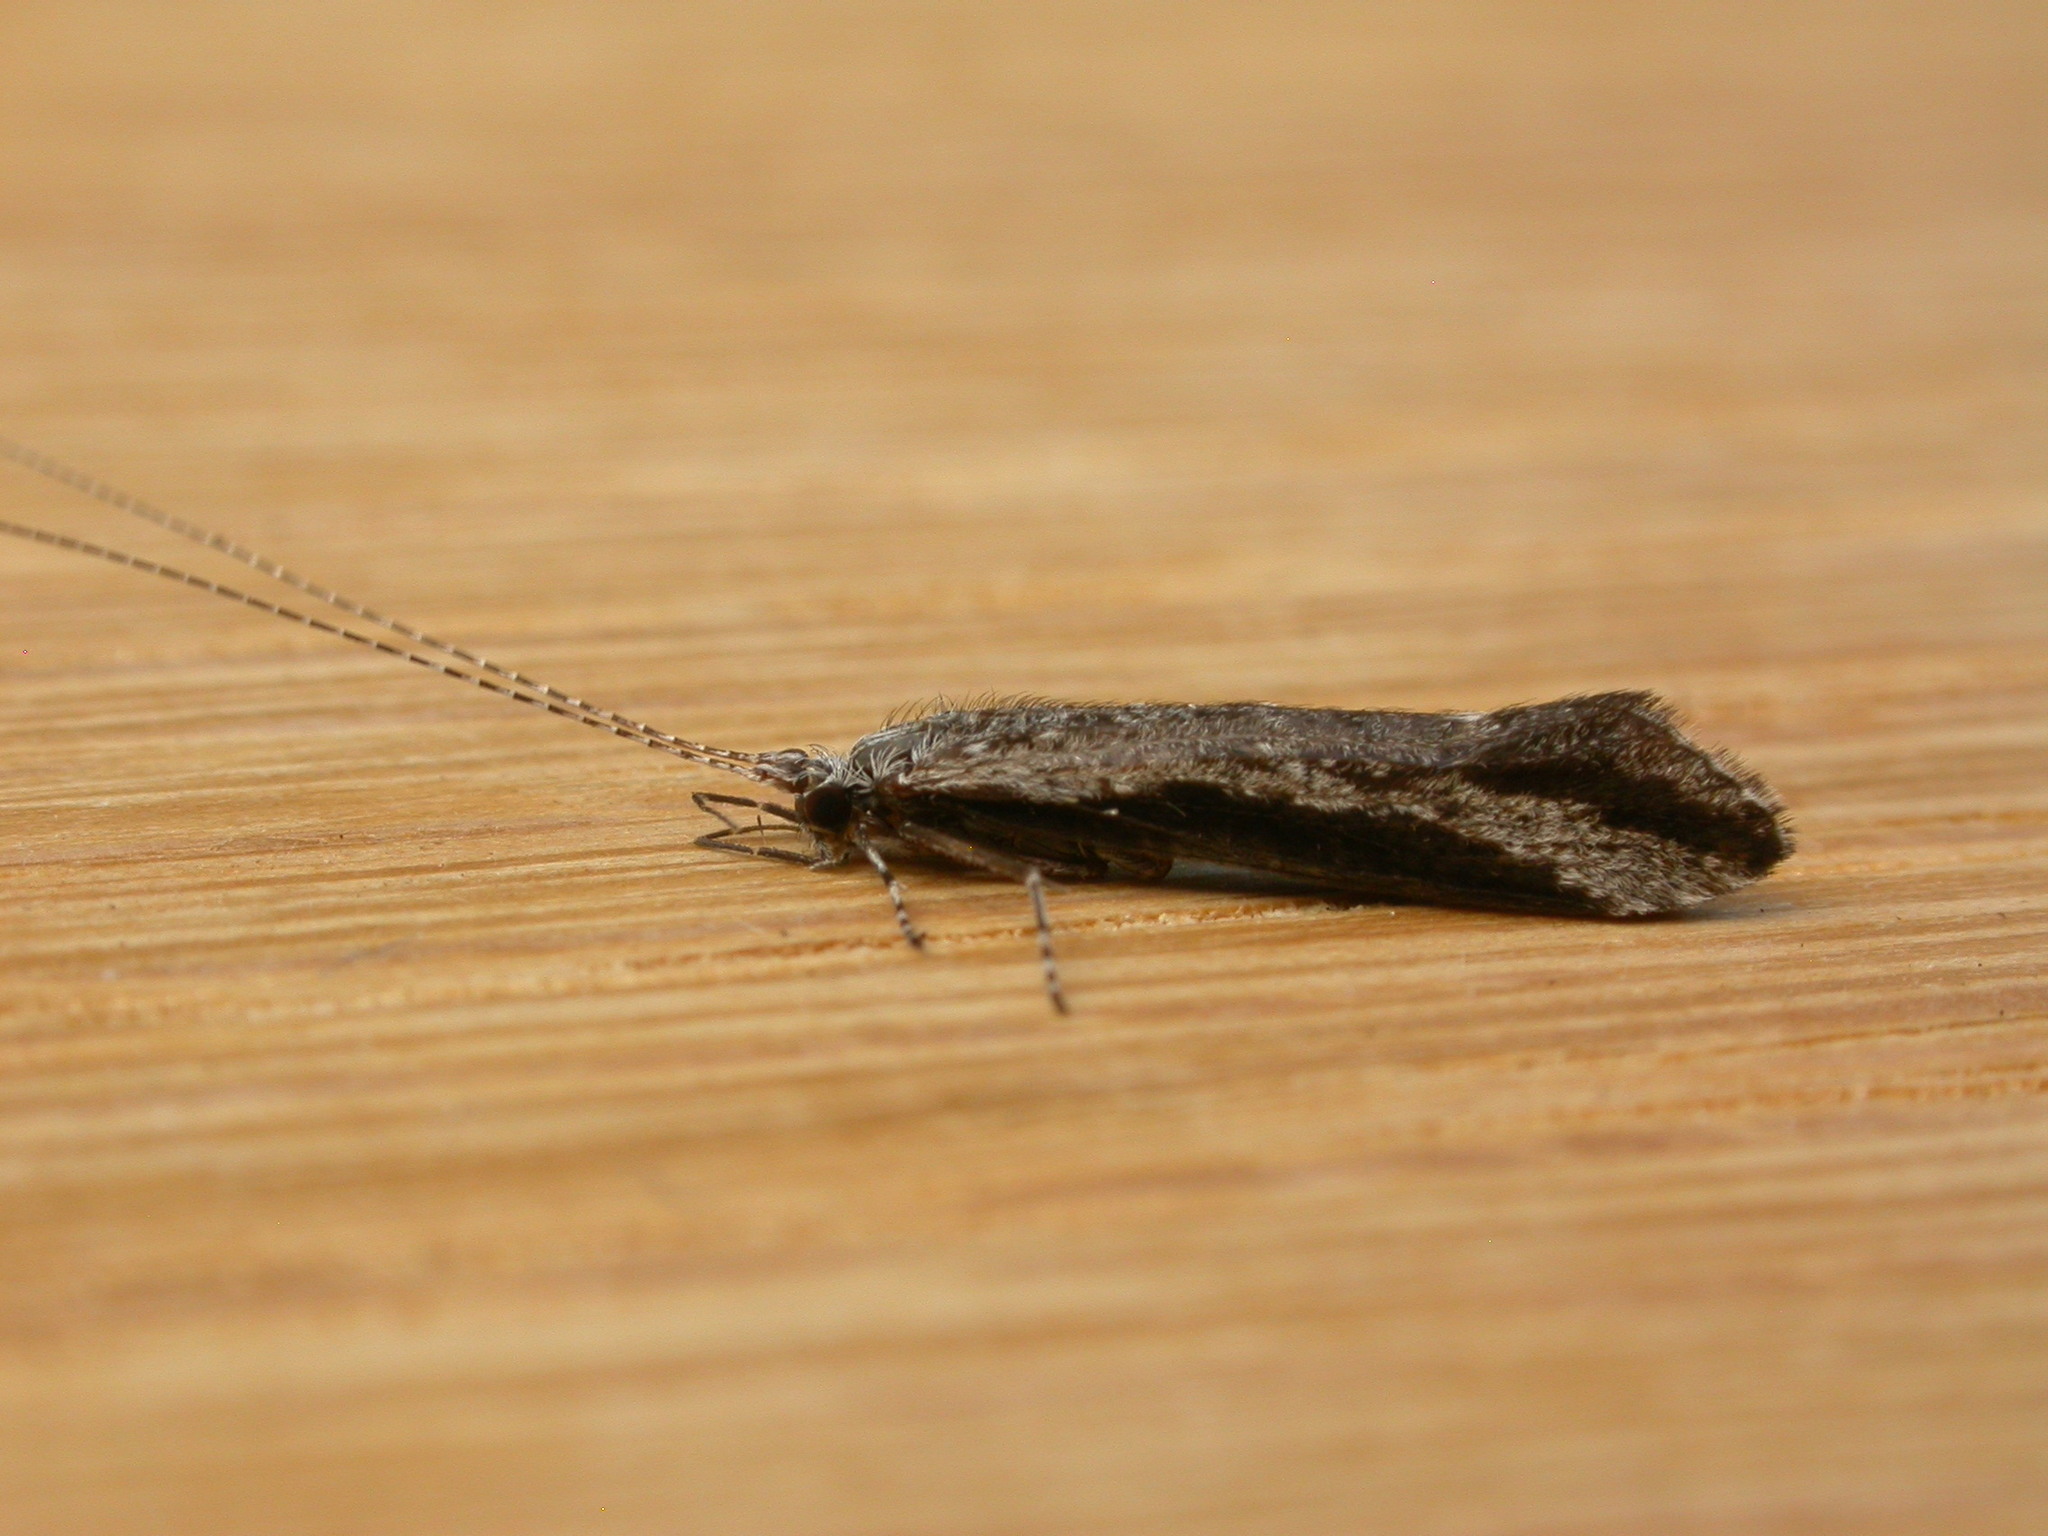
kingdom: Animalia
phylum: Arthropoda
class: Insecta
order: Trichoptera
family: Leptoceridae
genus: Condocerus
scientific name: Condocerus paludosus
